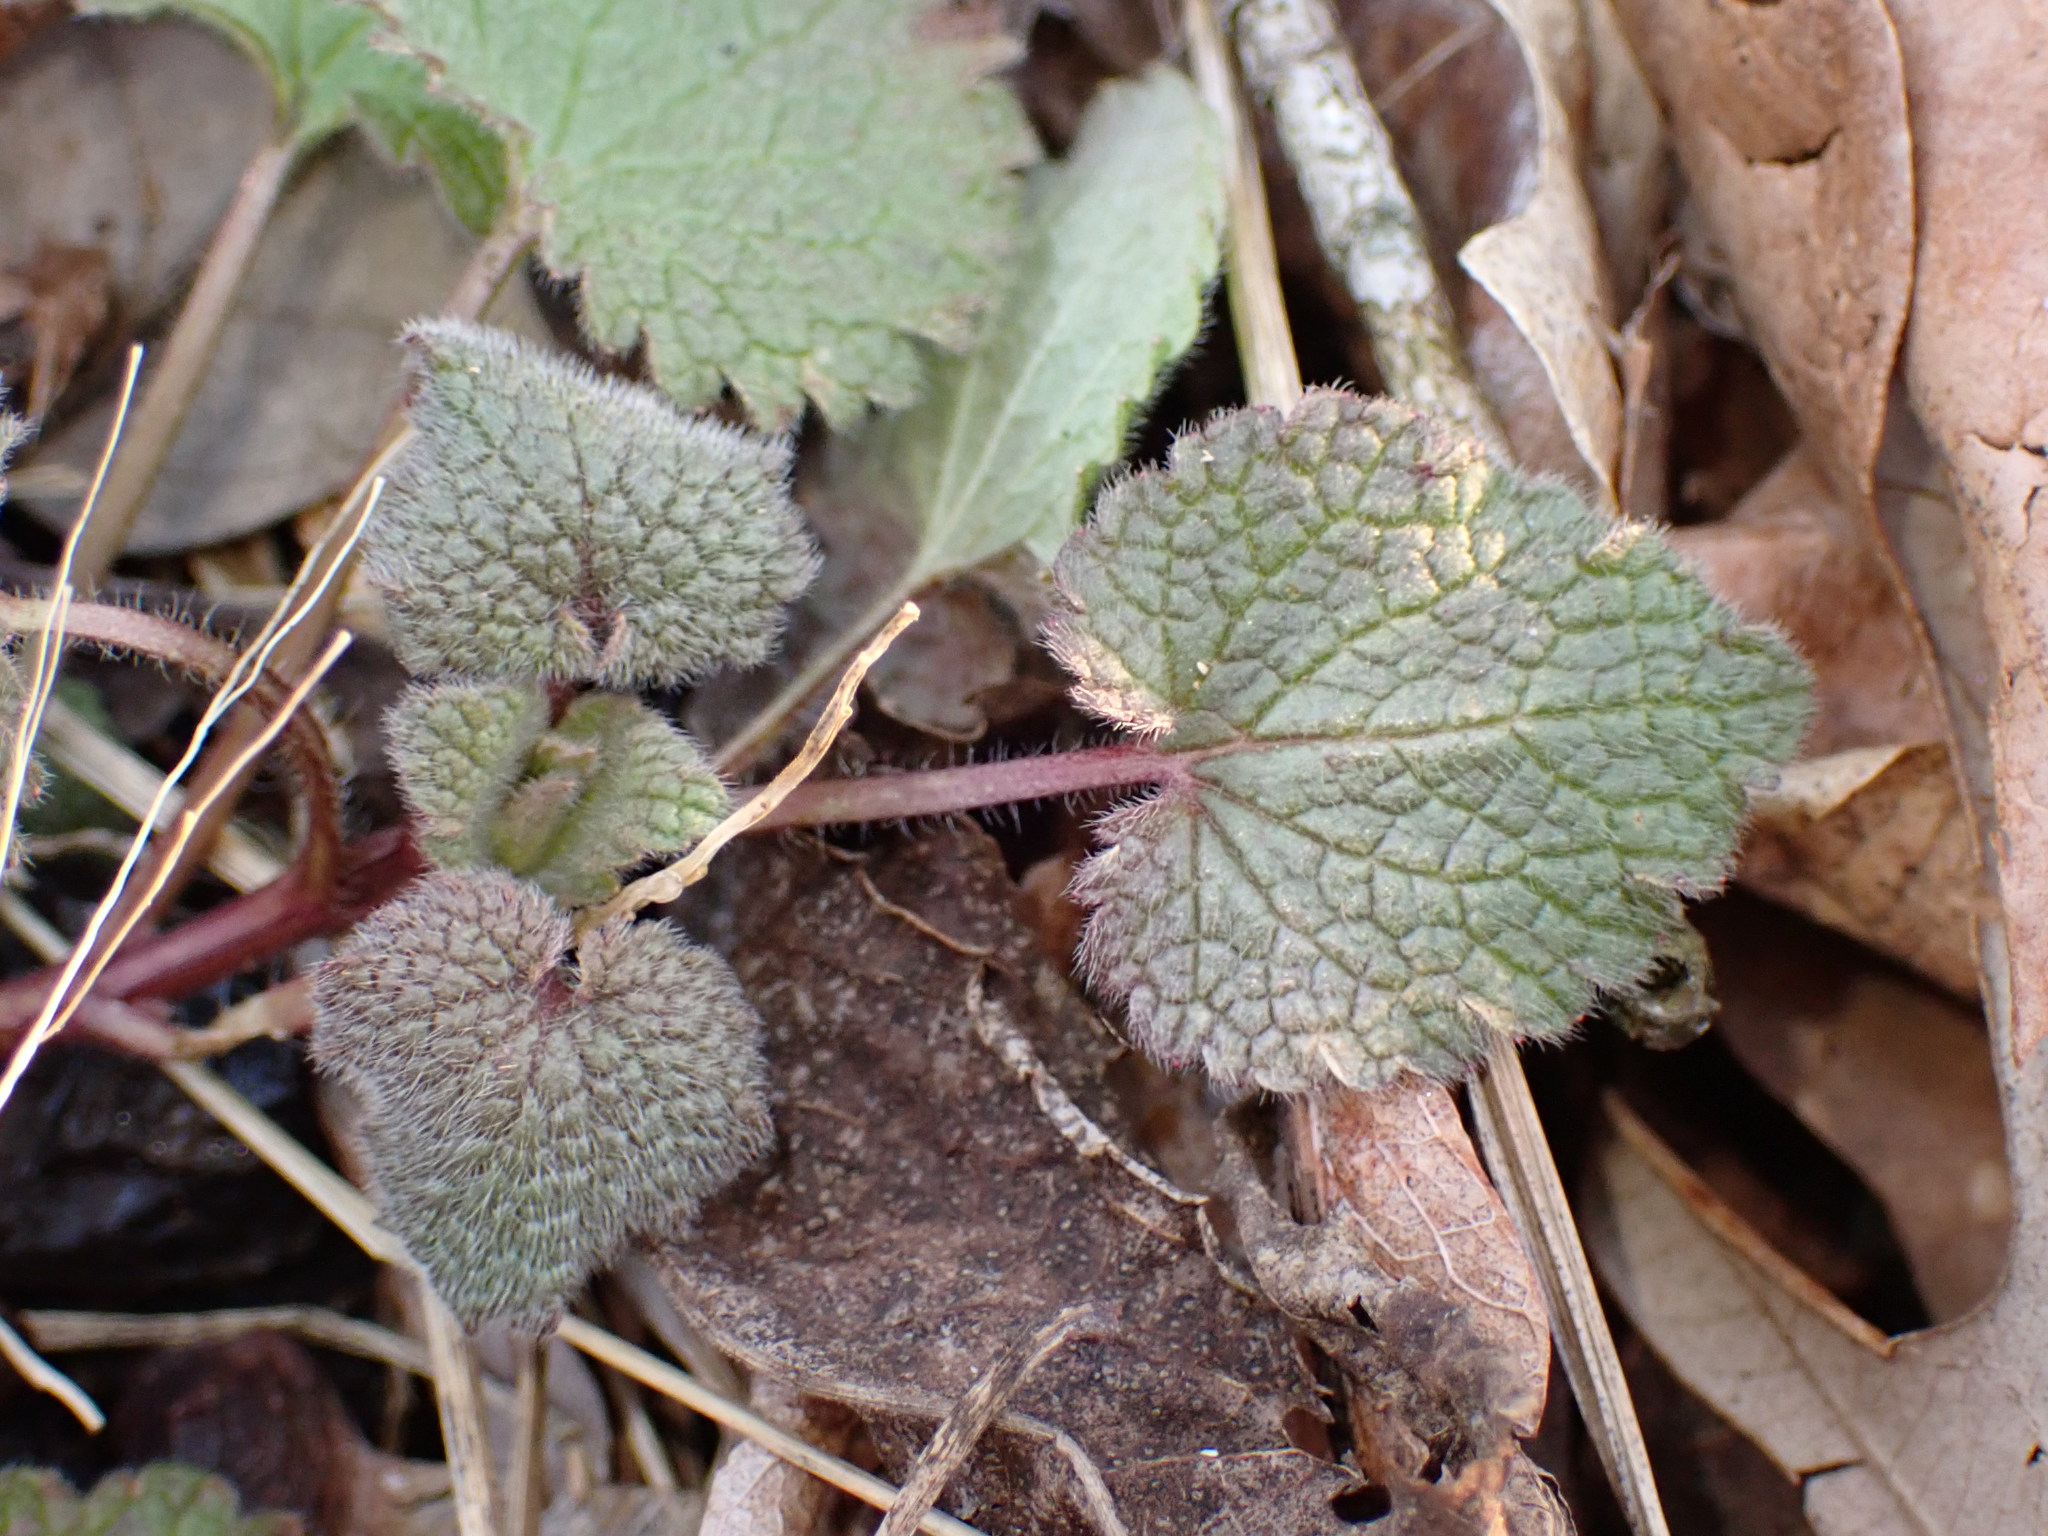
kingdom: Plantae
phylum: Tracheophyta
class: Magnoliopsida
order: Lamiales
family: Lamiaceae
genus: Lamium
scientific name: Lamium purpureum
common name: Red dead-nettle
